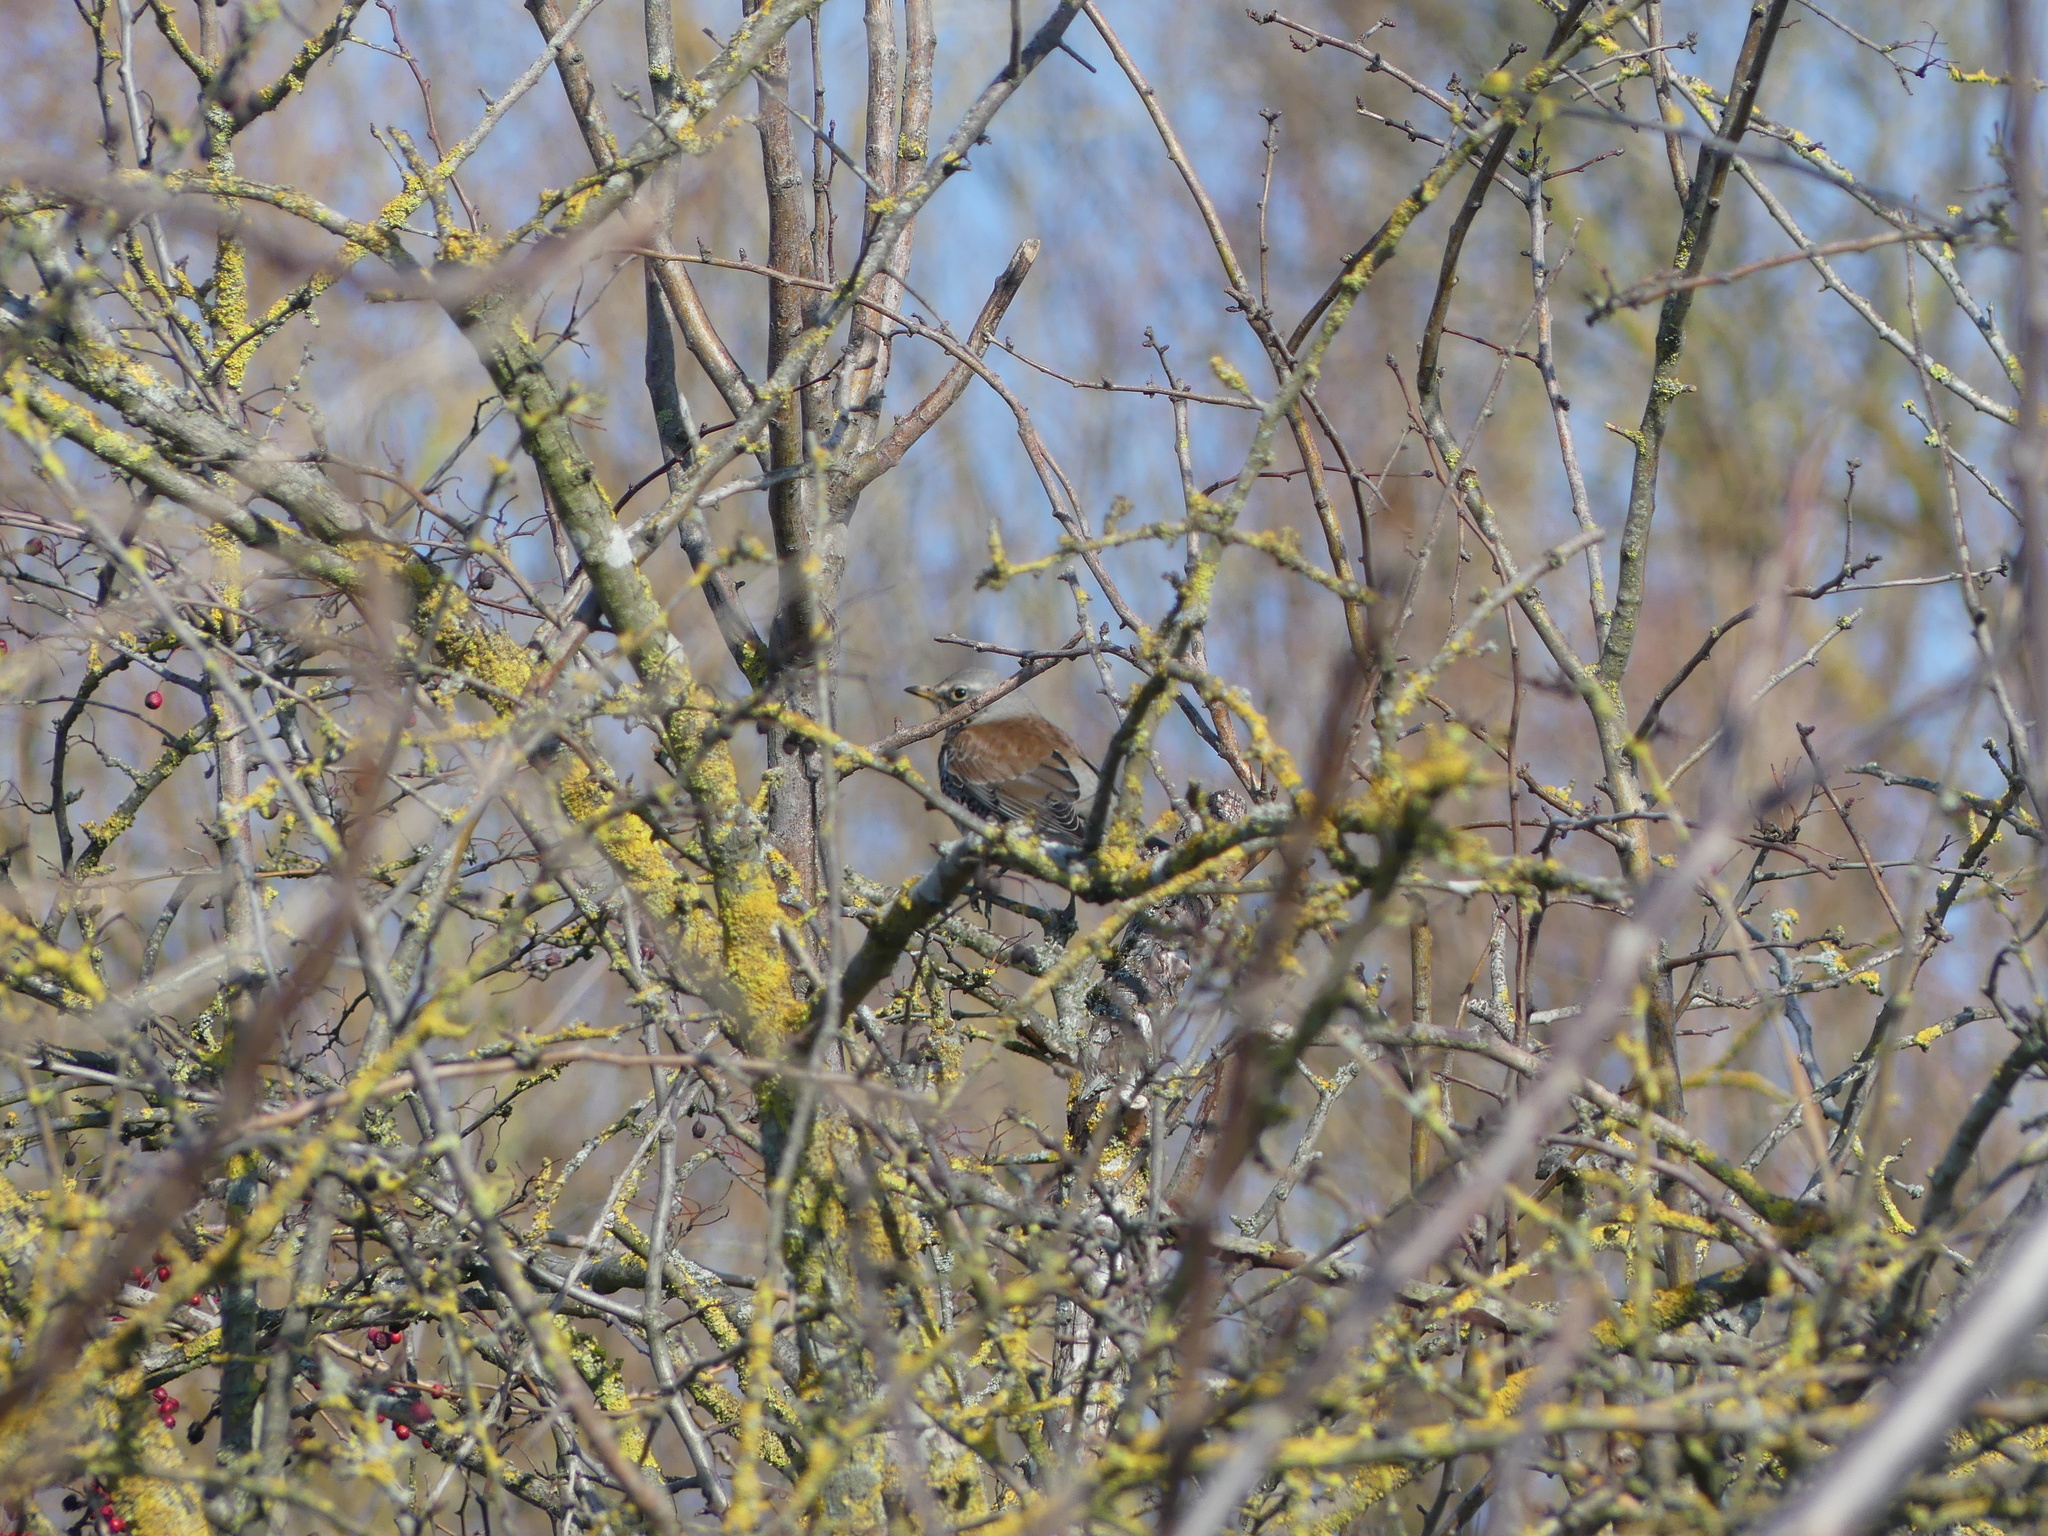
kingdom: Animalia
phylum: Chordata
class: Aves
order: Passeriformes
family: Turdidae
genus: Turdus
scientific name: Turdus pilaris
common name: Fieldfare
